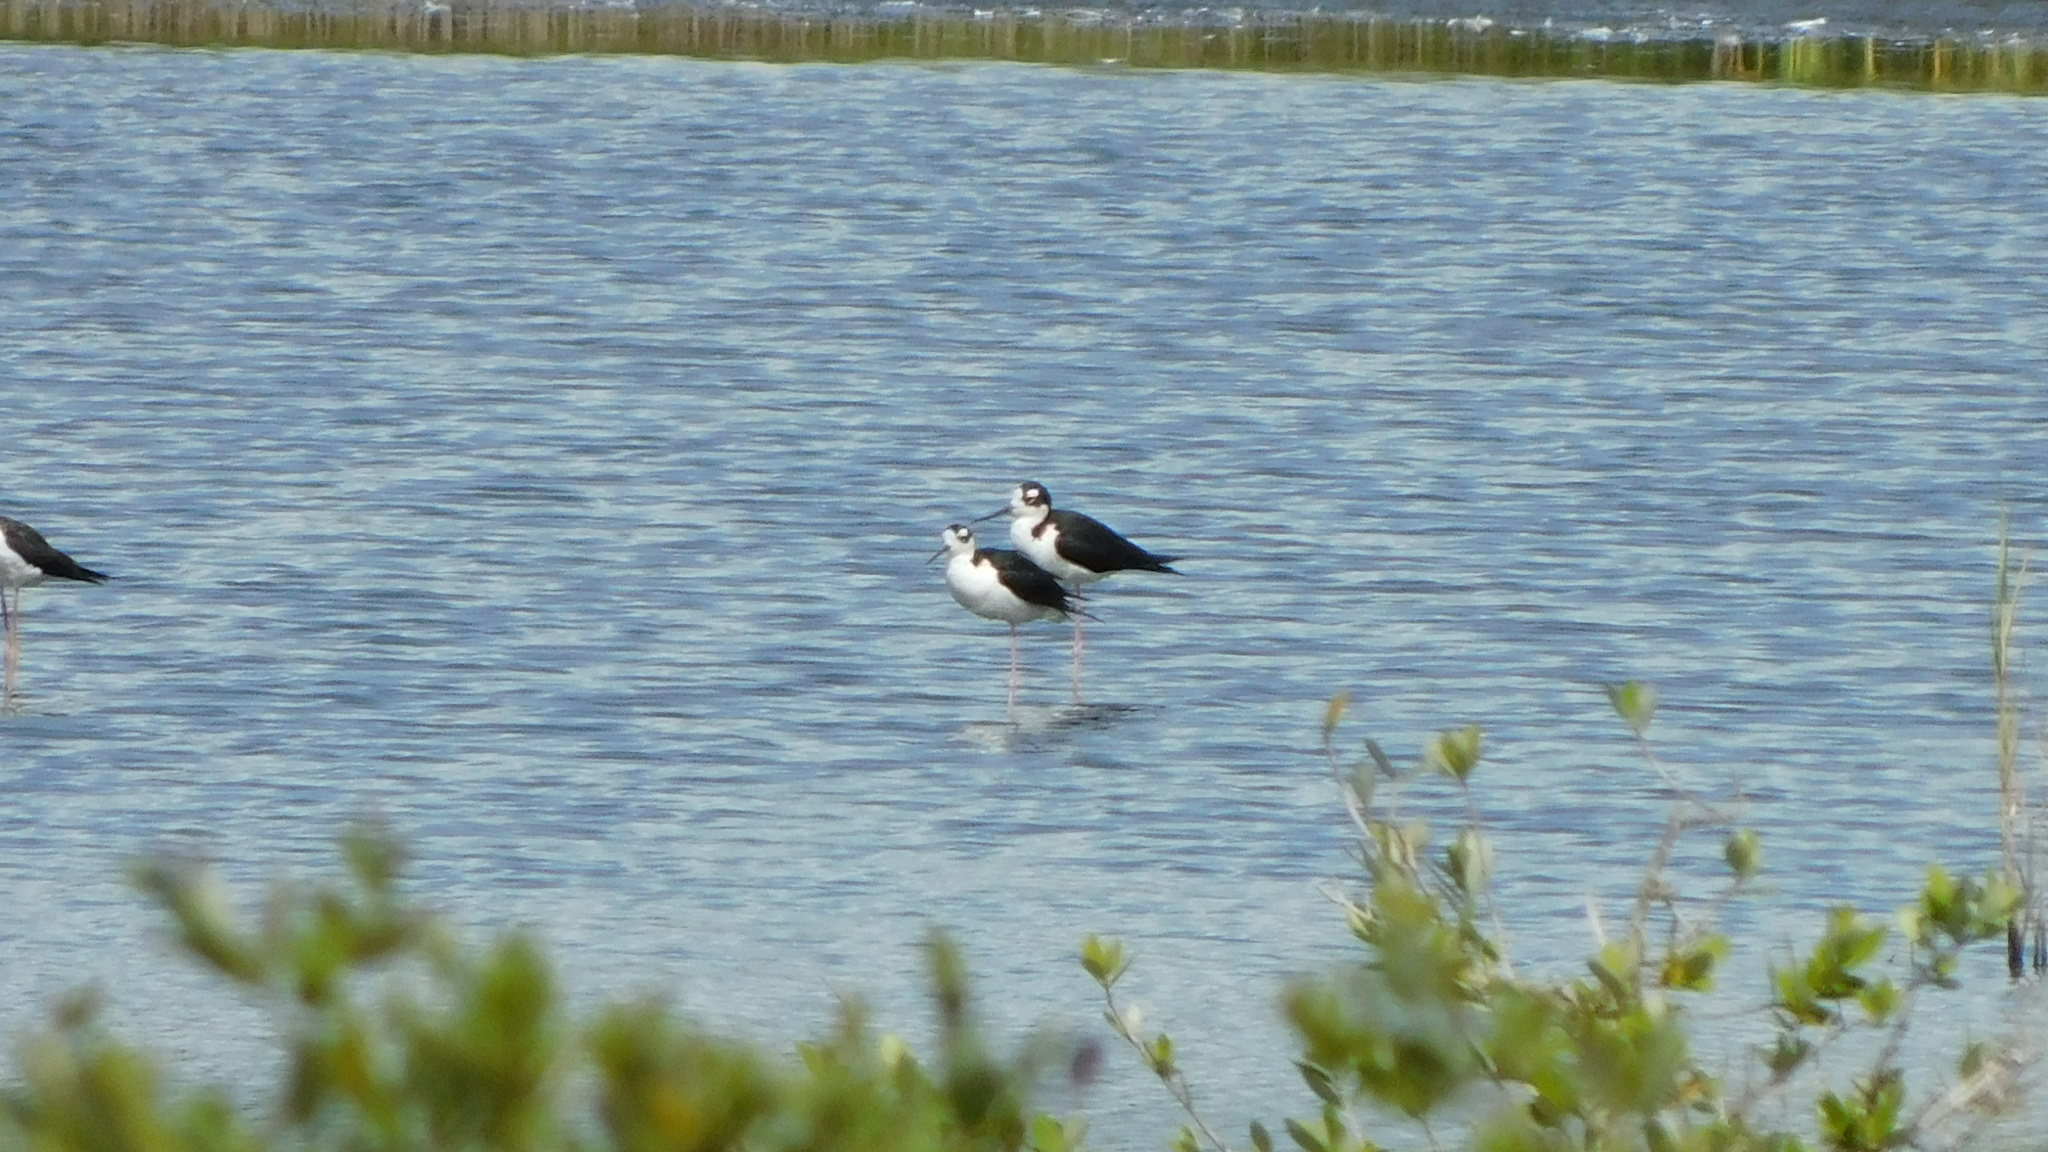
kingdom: Animalia
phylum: Chordata
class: Aves
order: Charadriiformes
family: Recurvirostridae
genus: Himantopus
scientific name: Himantopus mexicanus
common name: Black-necked stilt
